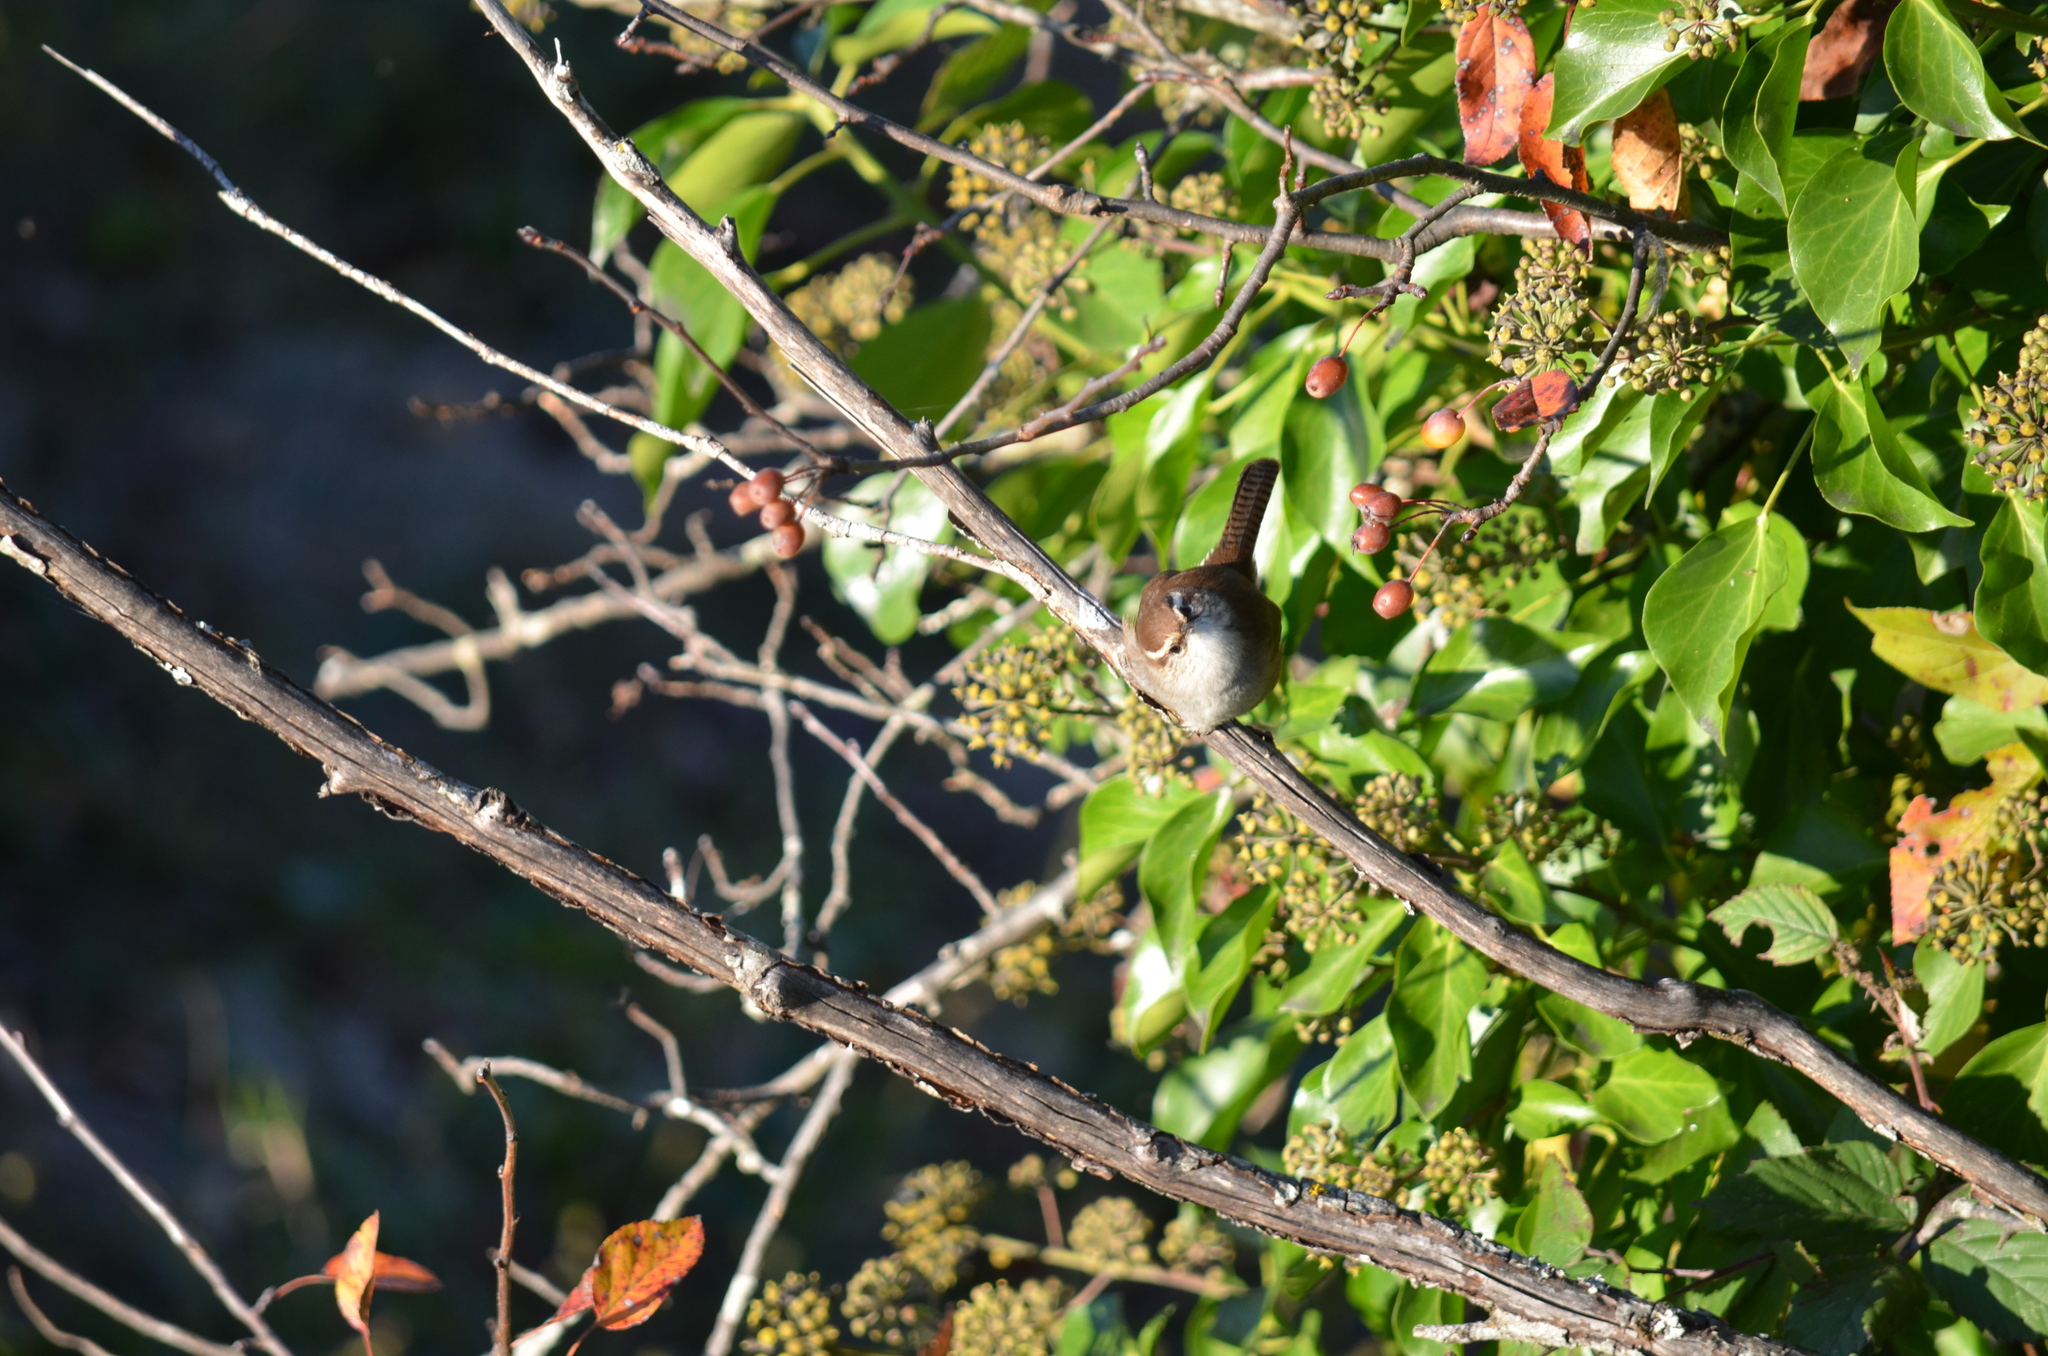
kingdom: Animalia
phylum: Chordata
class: Aves
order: Passeriformes
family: Troglodytidae
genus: Thryomanes
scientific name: Thryomanes bewickii
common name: Bewick's wren
